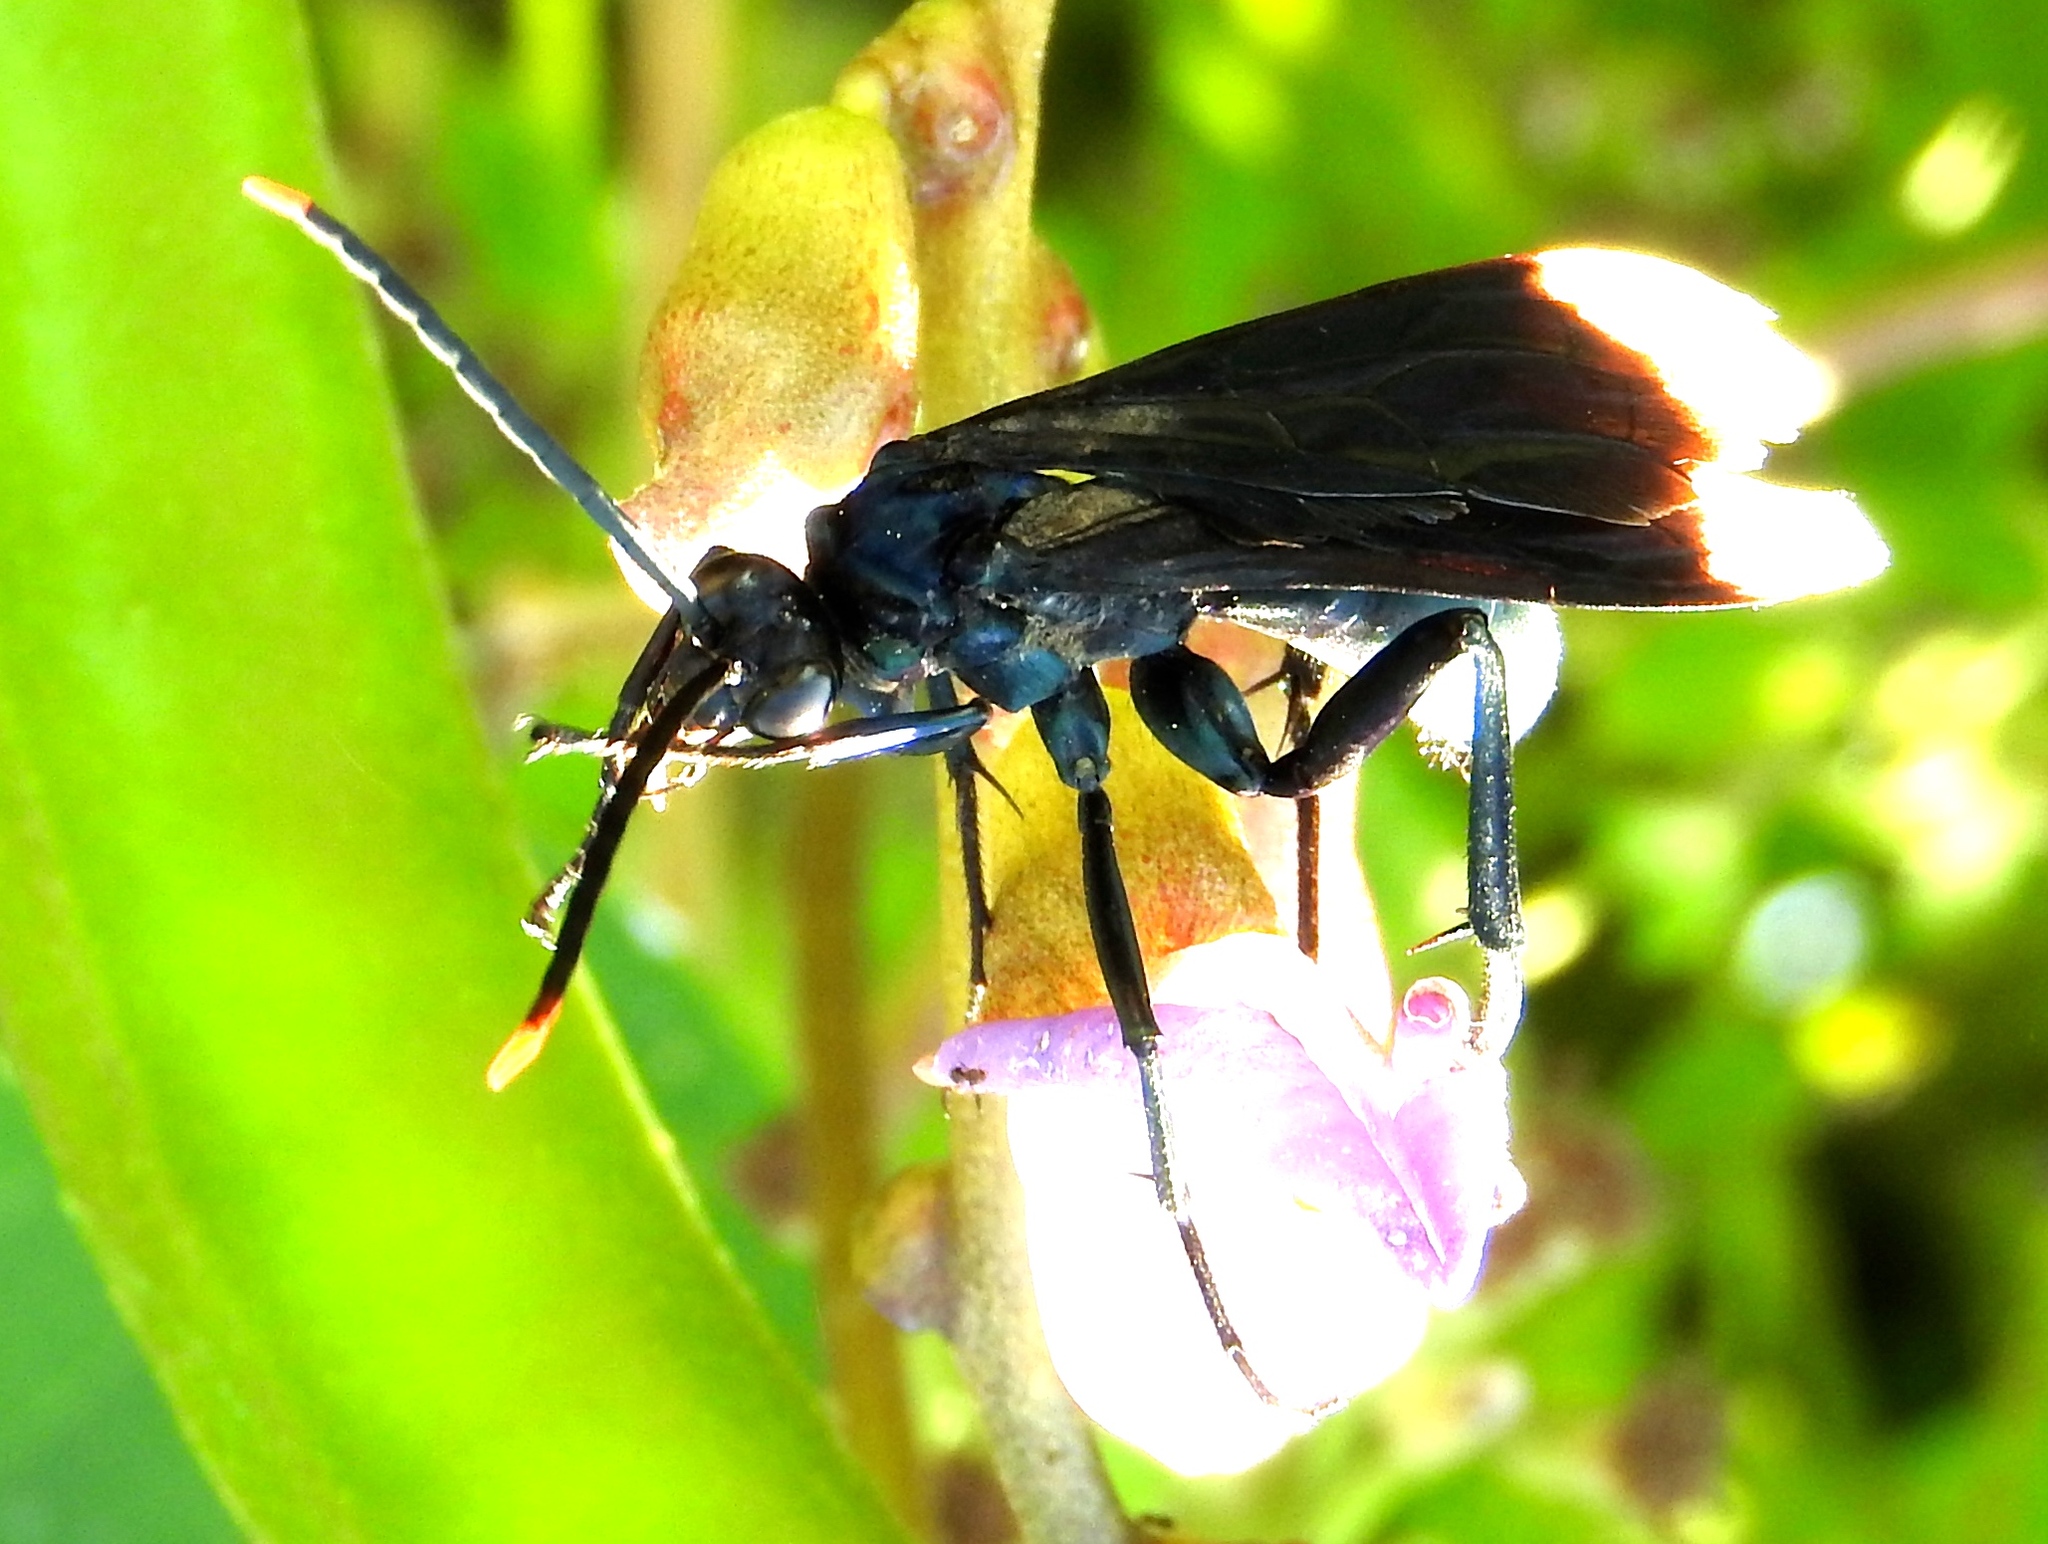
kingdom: Animalia
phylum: Arthropoda
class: Insecta
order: Hymenoptera
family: Pompilidae
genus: Pepsis
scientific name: Pepsis
